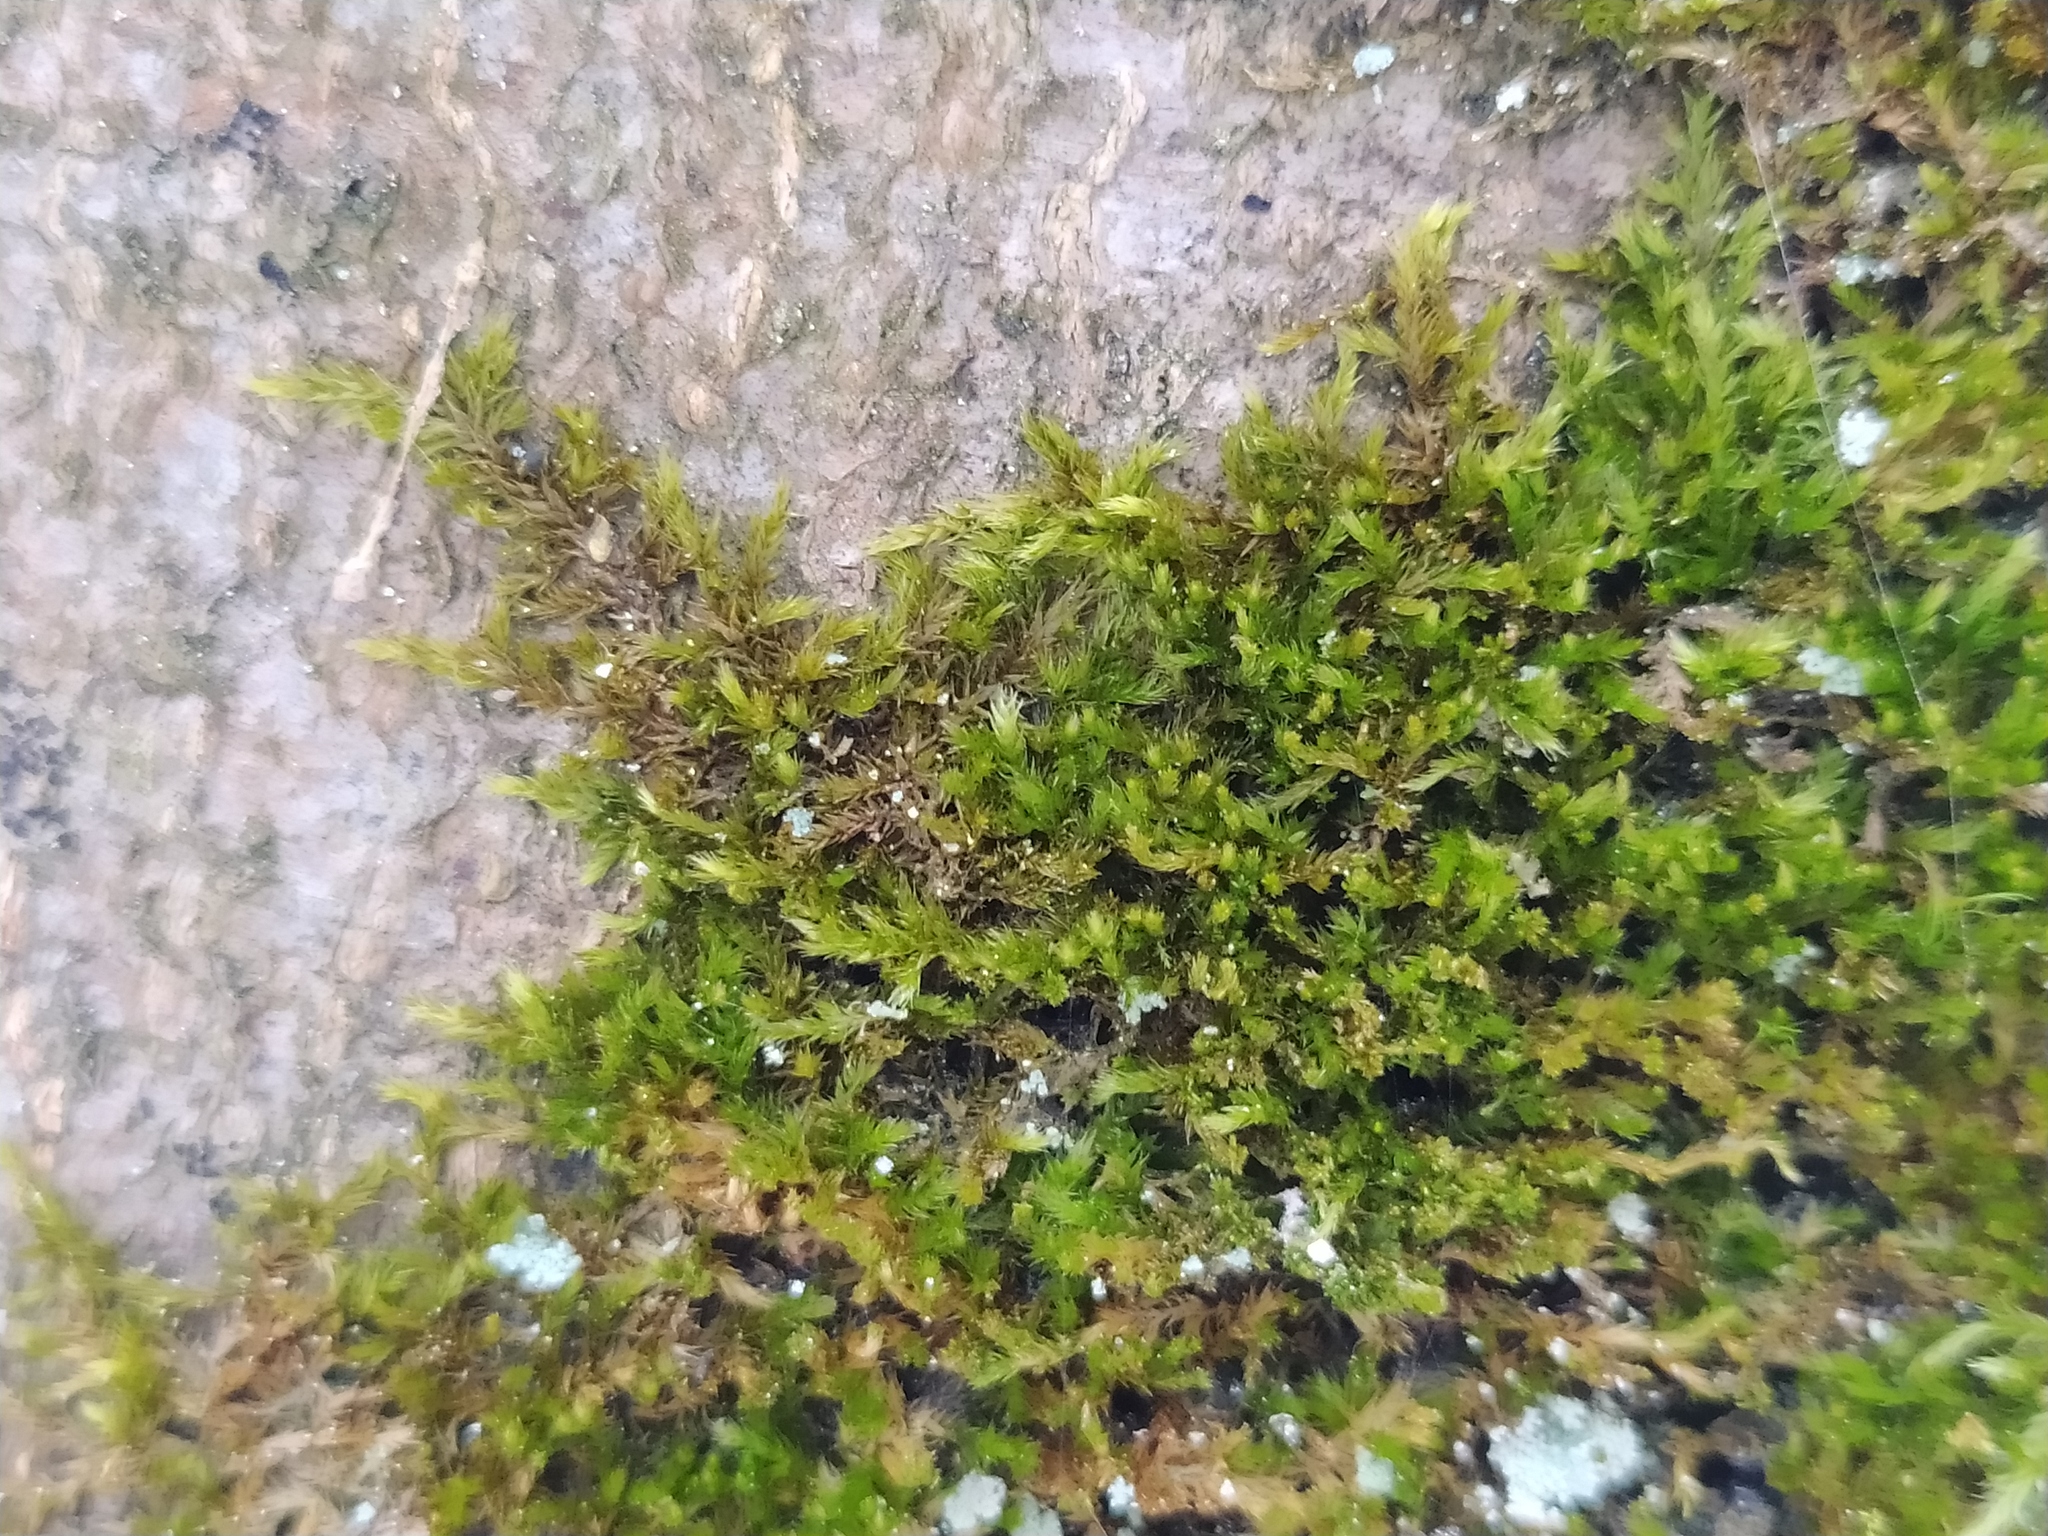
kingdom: Plantae
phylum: Bryophyta
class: Bryopsida
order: Hypnales
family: Pylaisiadelphaceae
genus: Platygyrium
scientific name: Platygyrium repens
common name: Flat-brocade moss
